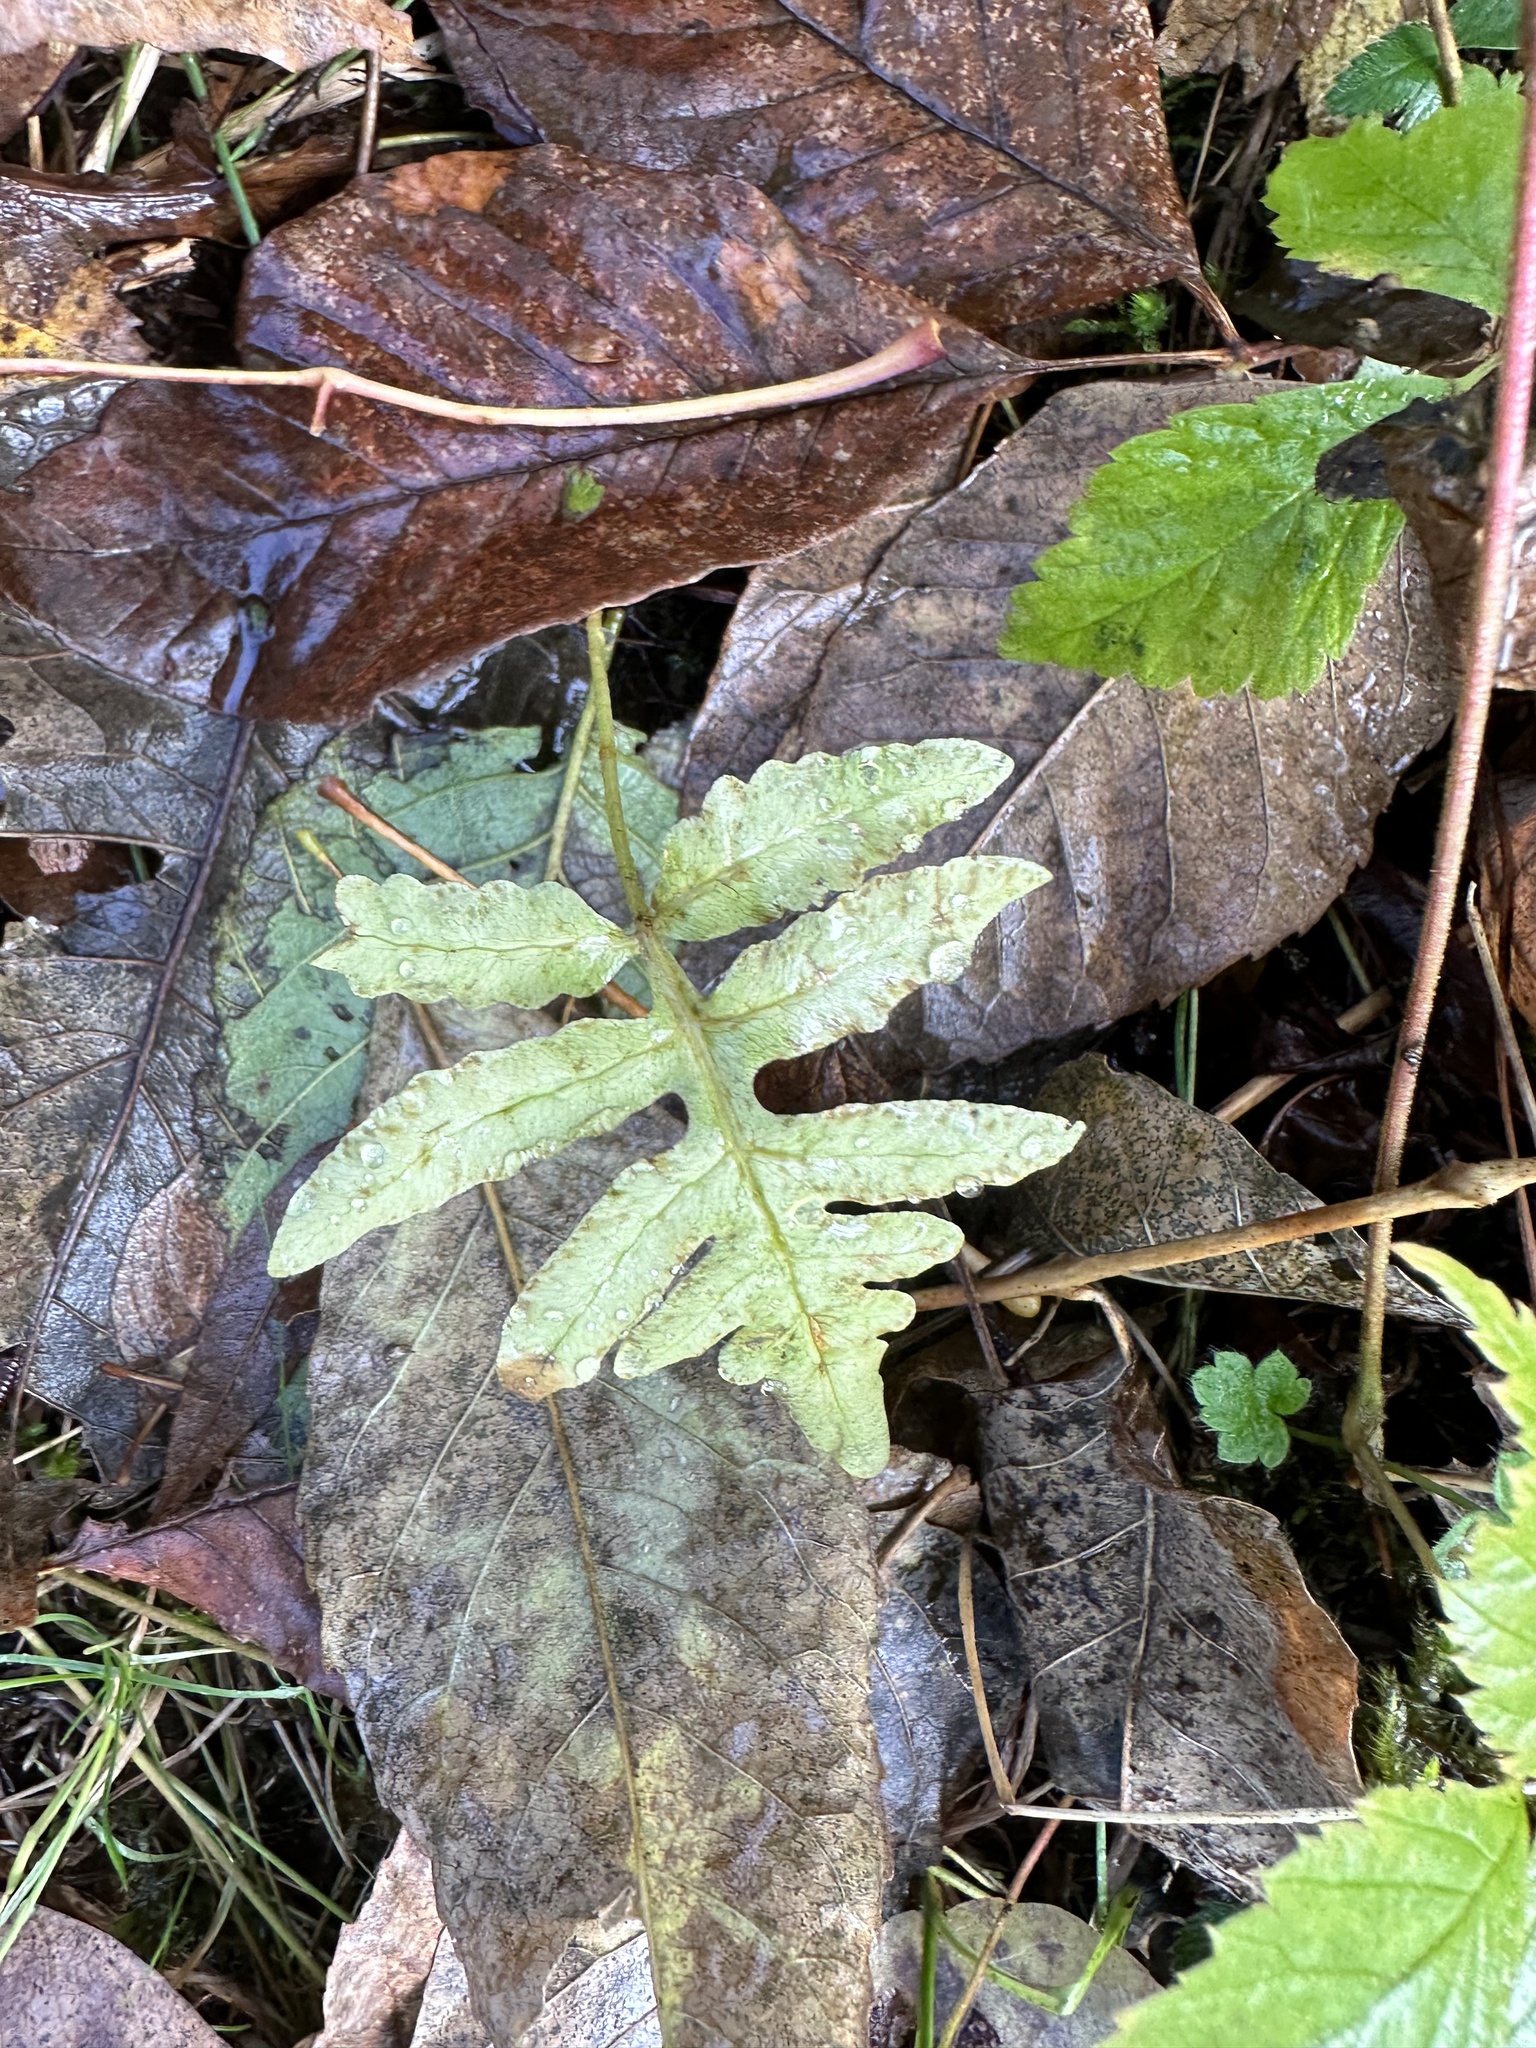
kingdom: Plantae
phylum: Tracheophyta
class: Polypodiopsida
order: Polypodiales
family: Onocleaceae
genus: Onoclea
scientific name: Onoclea sensibilis
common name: Sensitive fern
